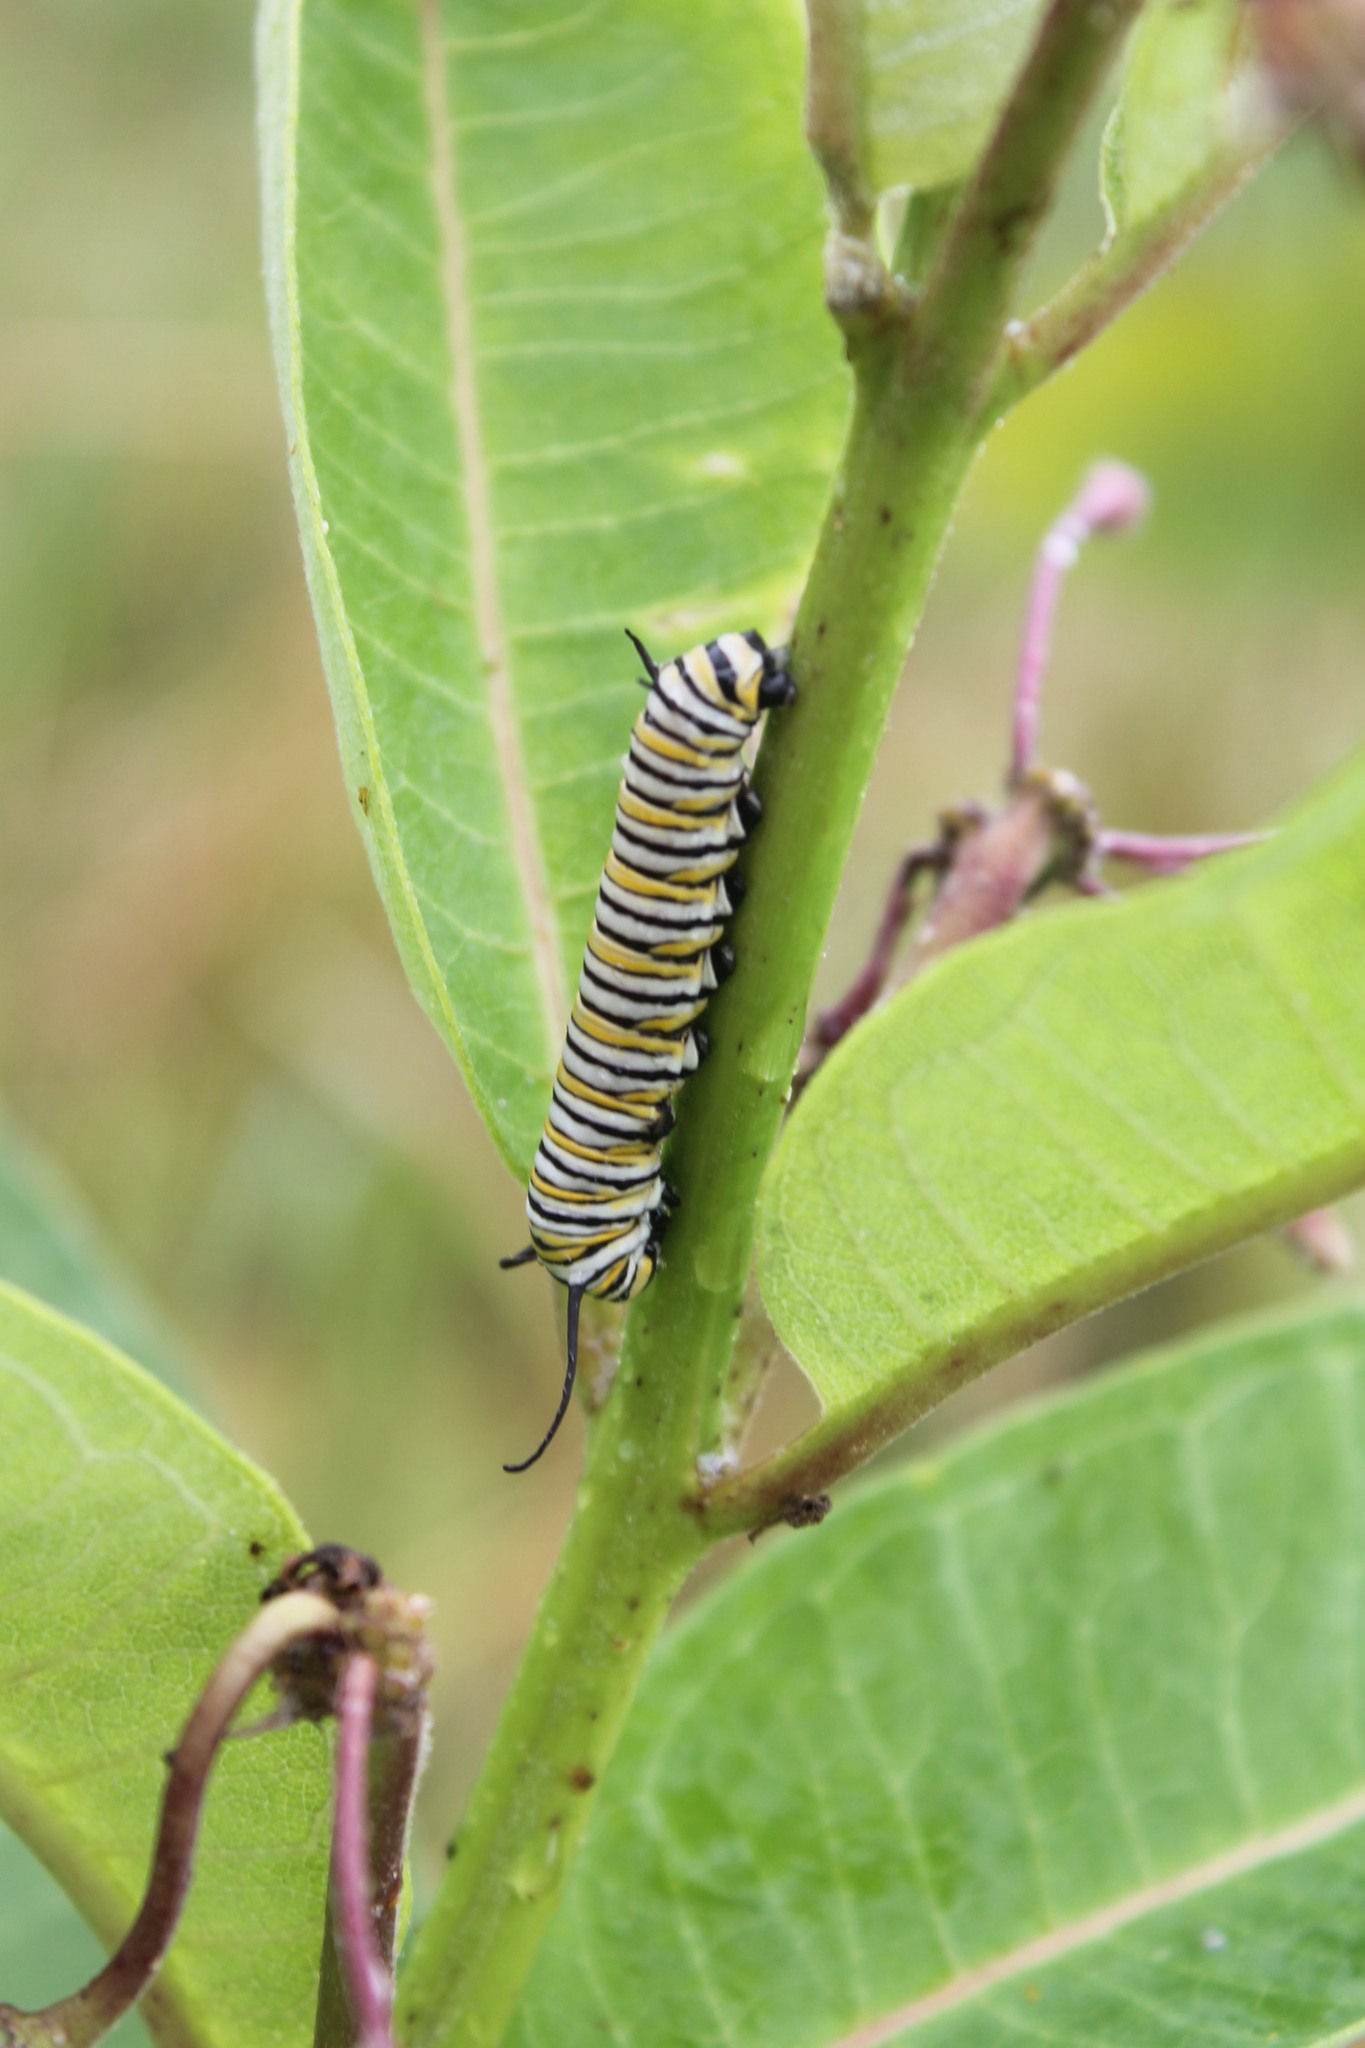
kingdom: Animalia
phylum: Arthropoda
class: Insecta
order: Lepidoptera
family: Nymphalidae
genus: Danaus
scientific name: Danaus plexippus
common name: Monarch
